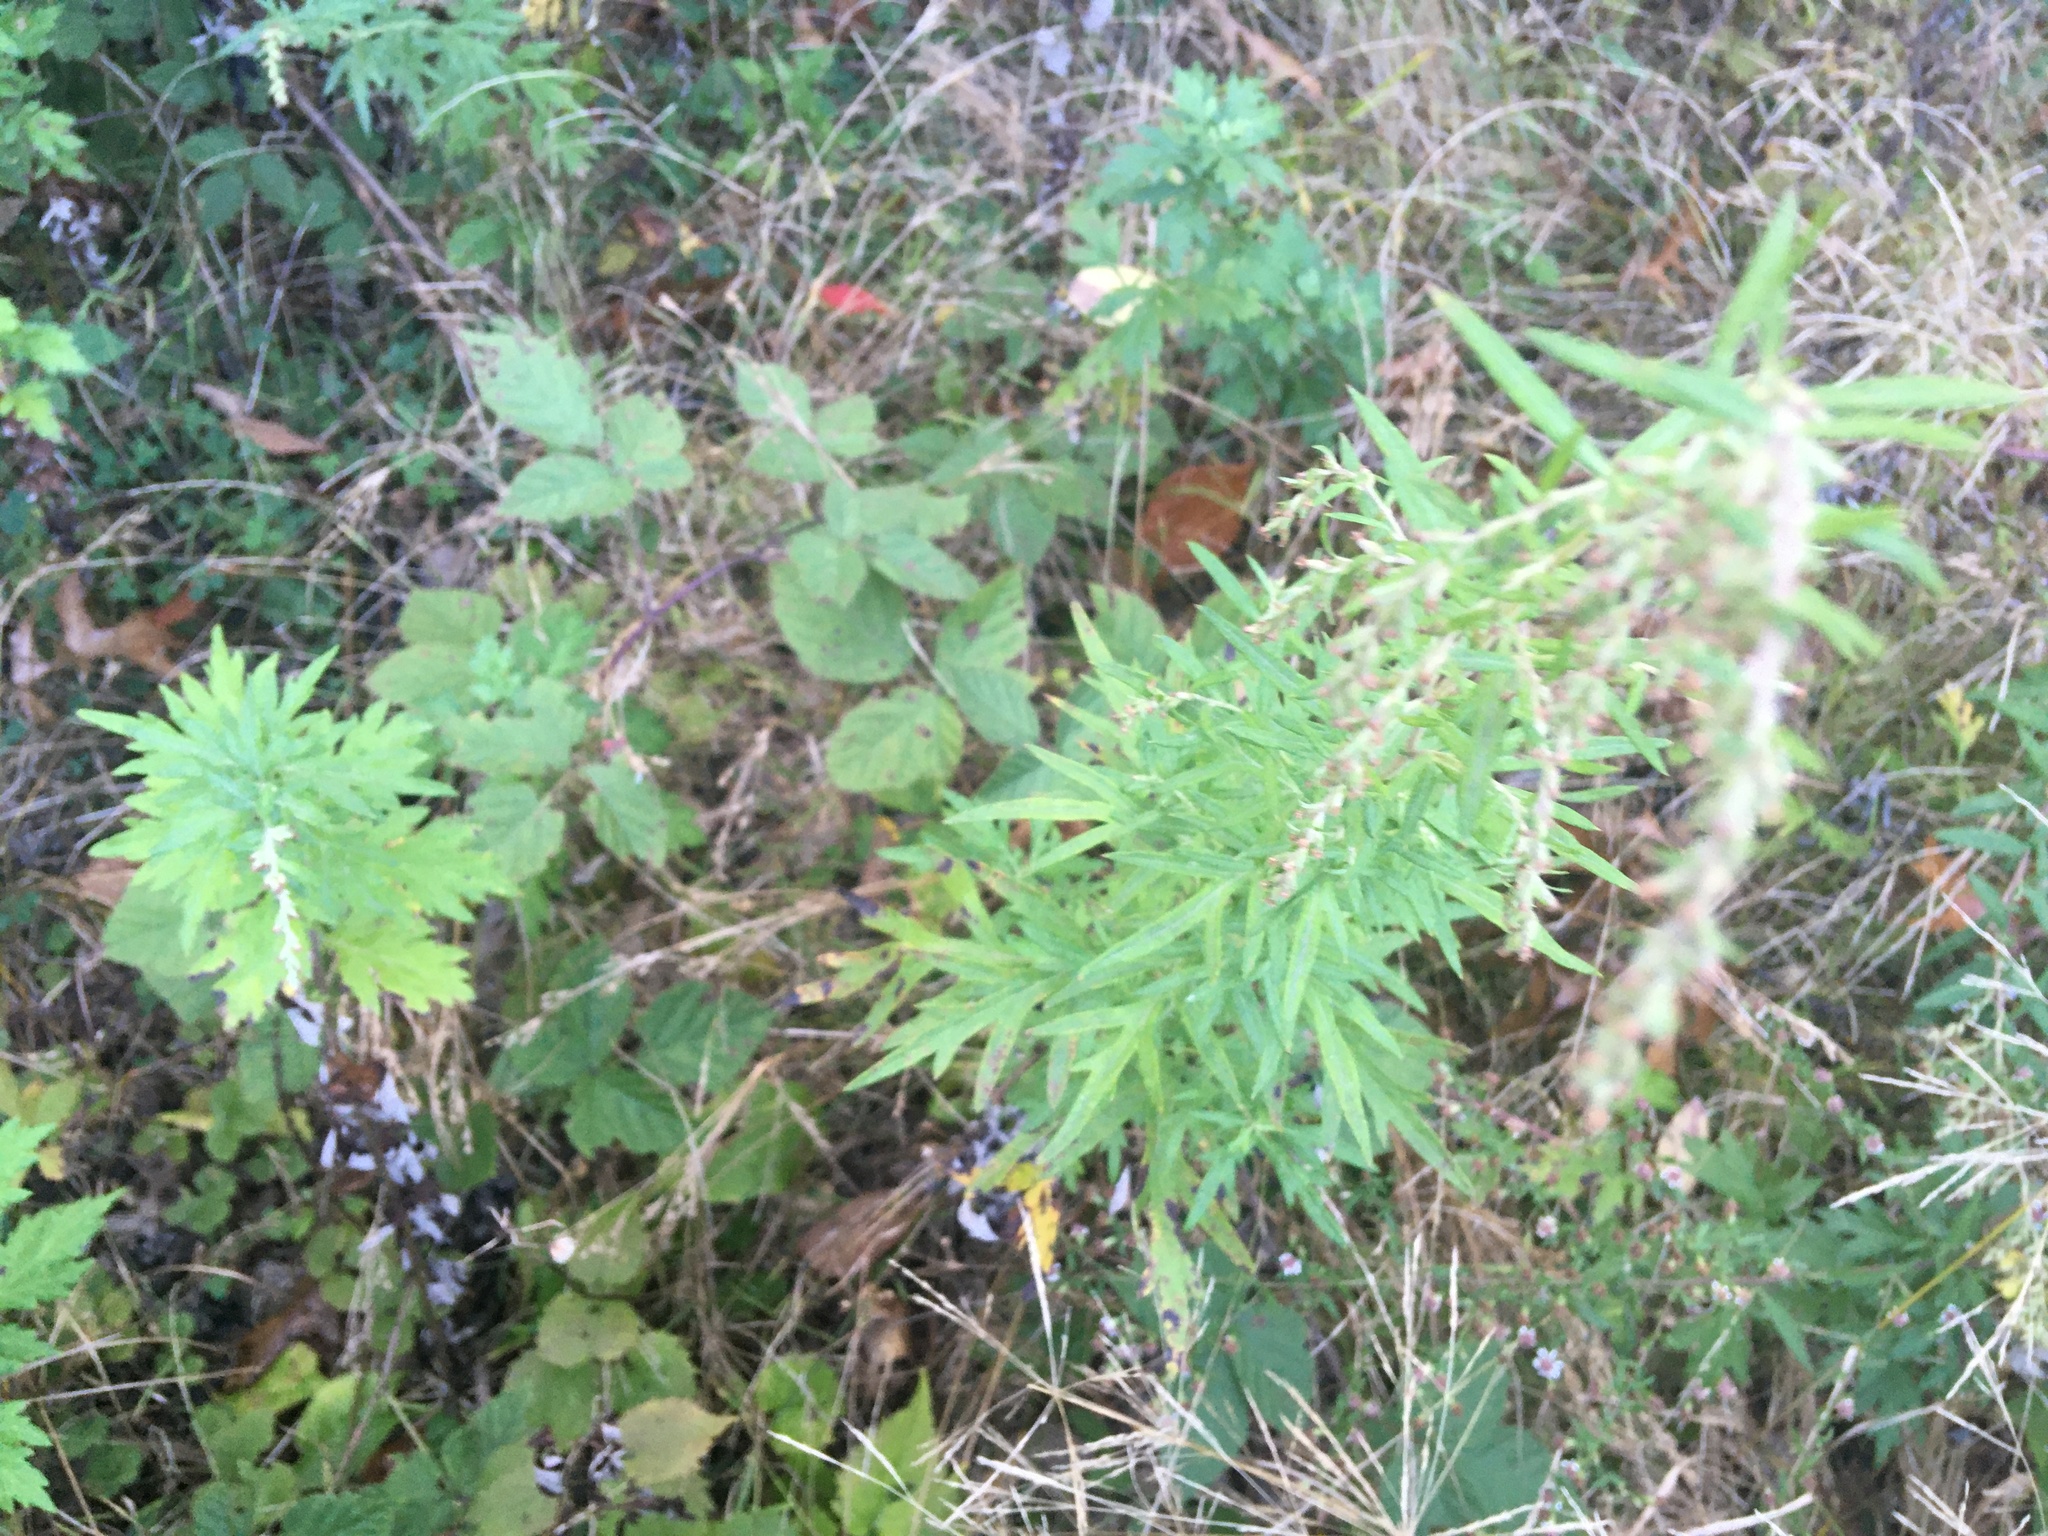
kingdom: Plantae
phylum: Tracheophyta
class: Magnoliopsida
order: Asterales
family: Asteraceae
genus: Artemisia
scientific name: Artemisia vulgaris
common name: Mugwort
